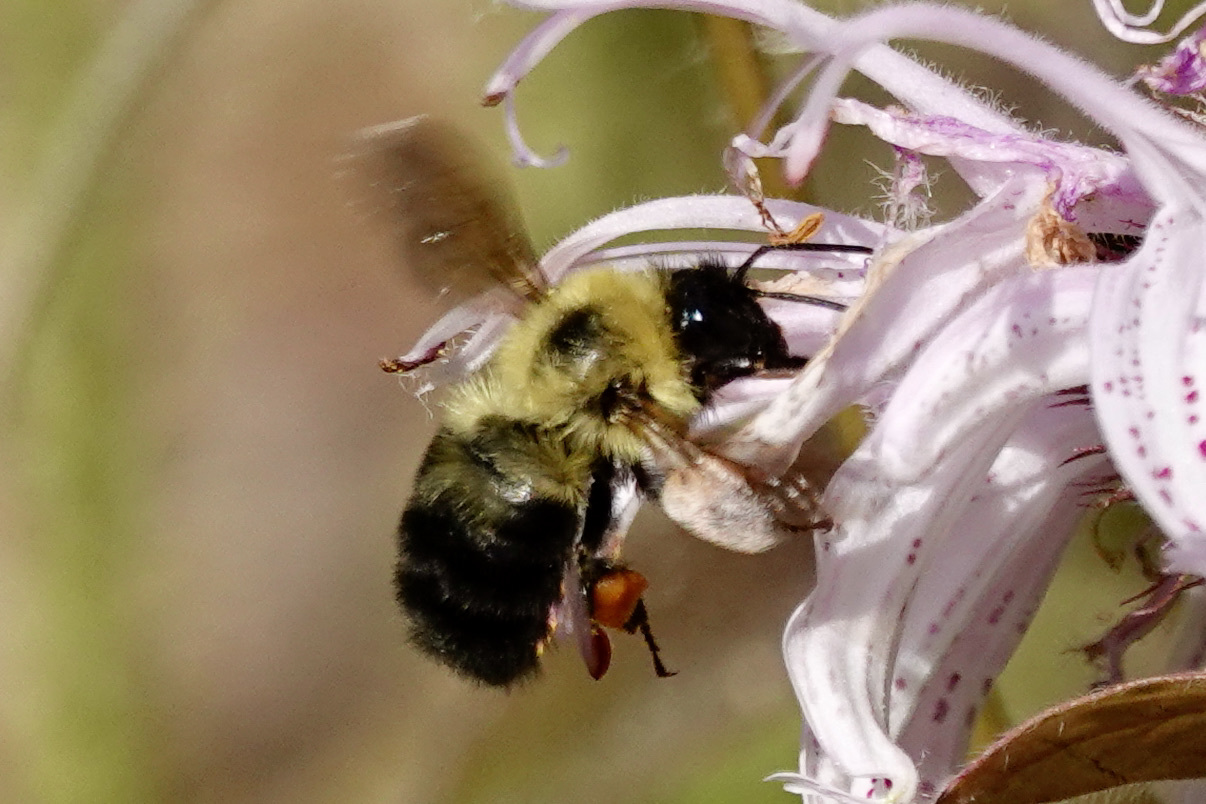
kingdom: Animalia
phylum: Arthropoda
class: Insecta
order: Hymenoptera
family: Apidae
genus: Bombus
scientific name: Bombus bimaculatus
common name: Two-spotted bumble bee
